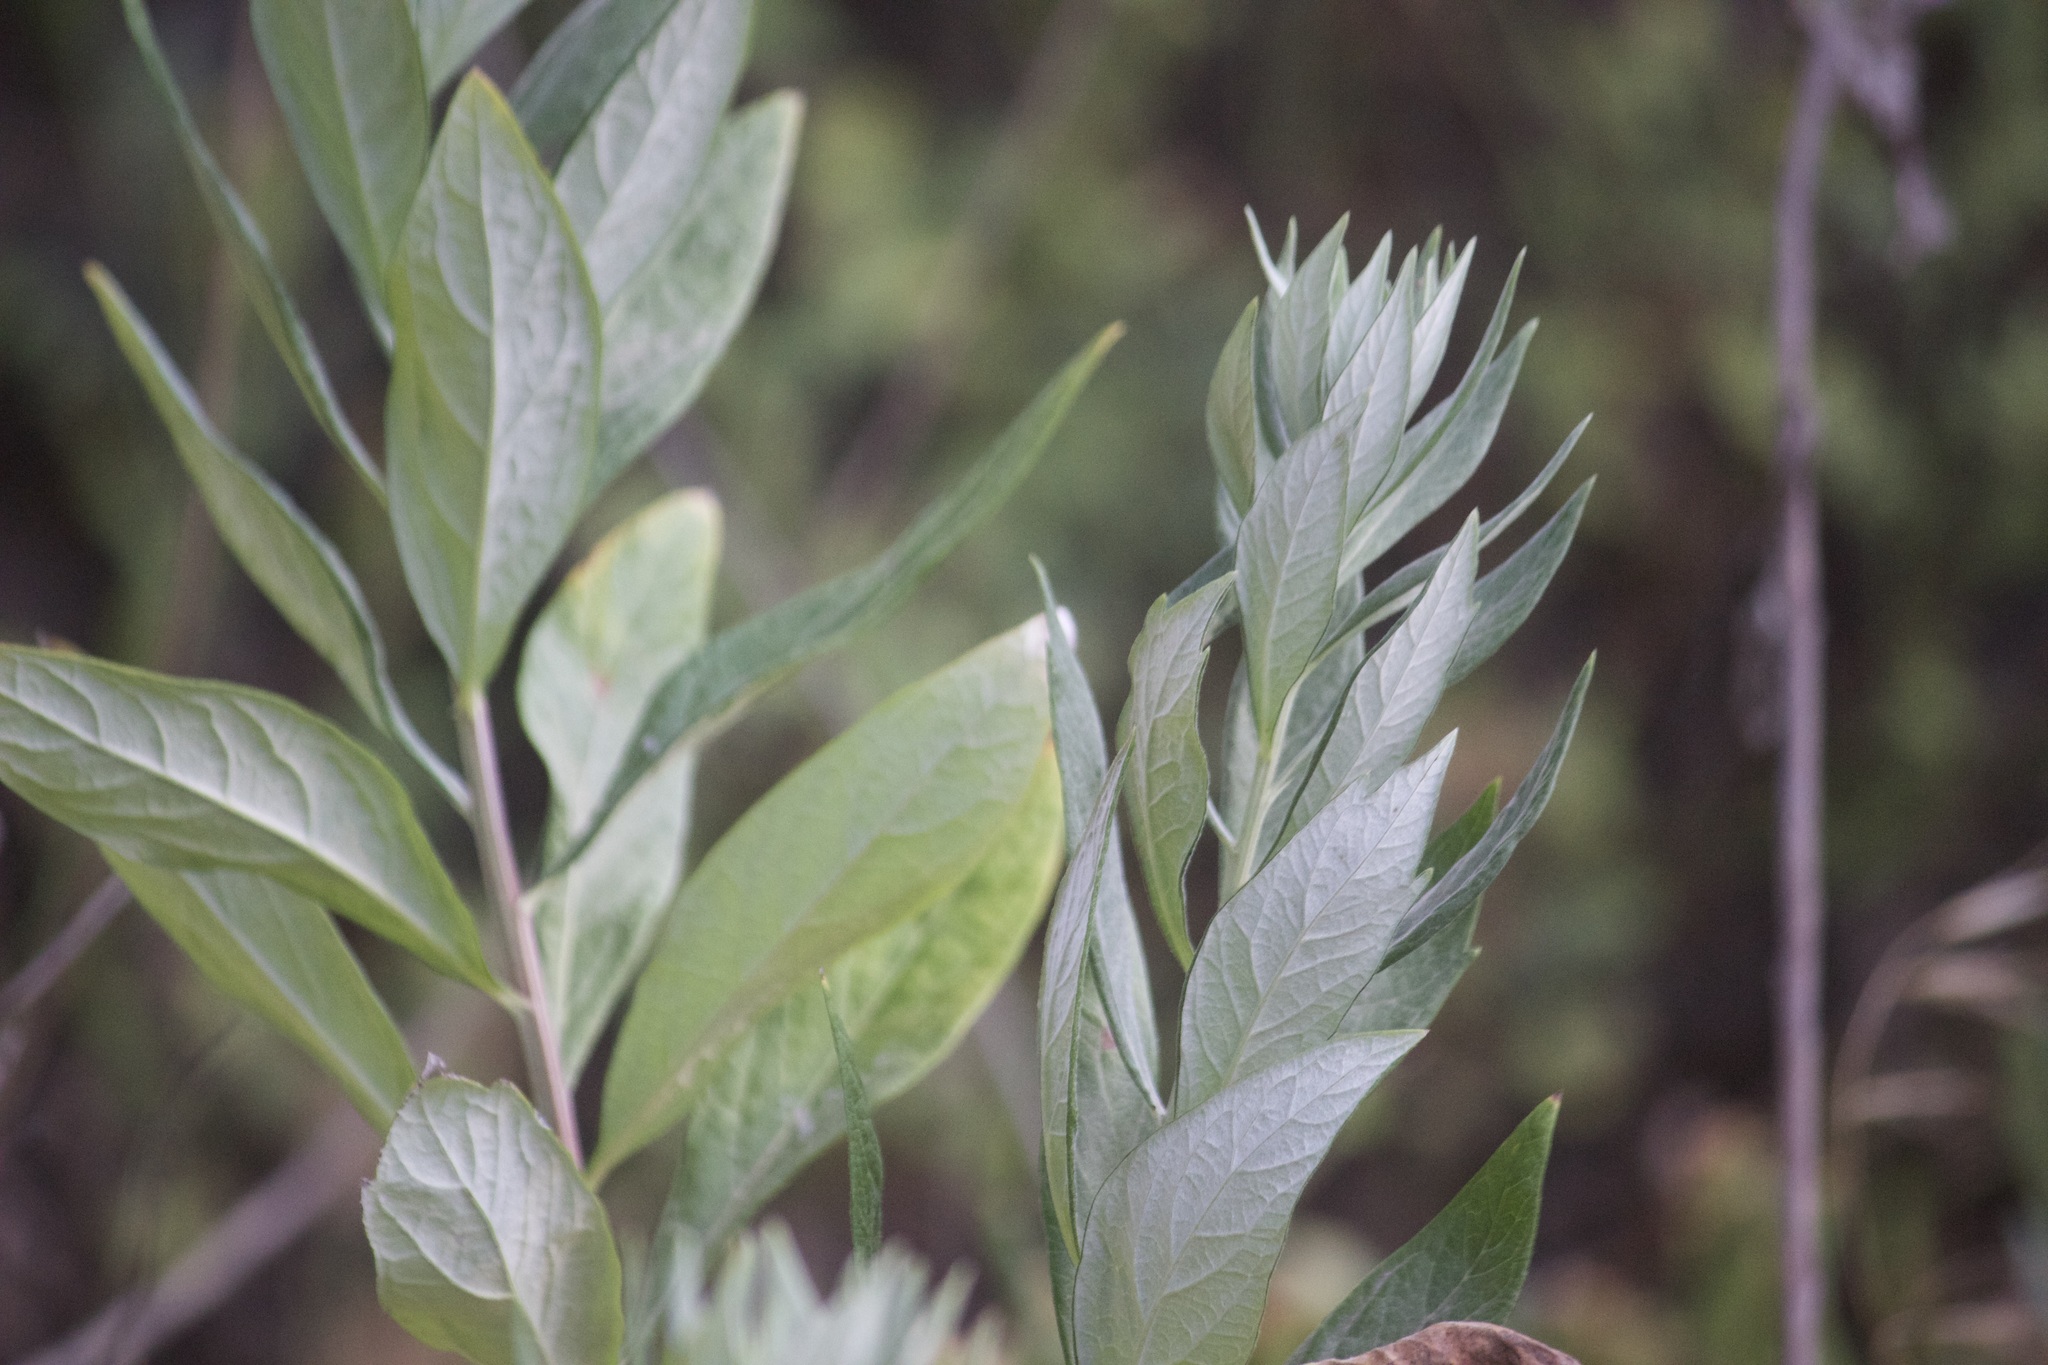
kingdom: Plantae
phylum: Tracheophyta
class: Magnoliopsida
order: Asterales
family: Asteraceae
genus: Artemisia
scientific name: Artemisia douglasiana
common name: Northwest mugwort
